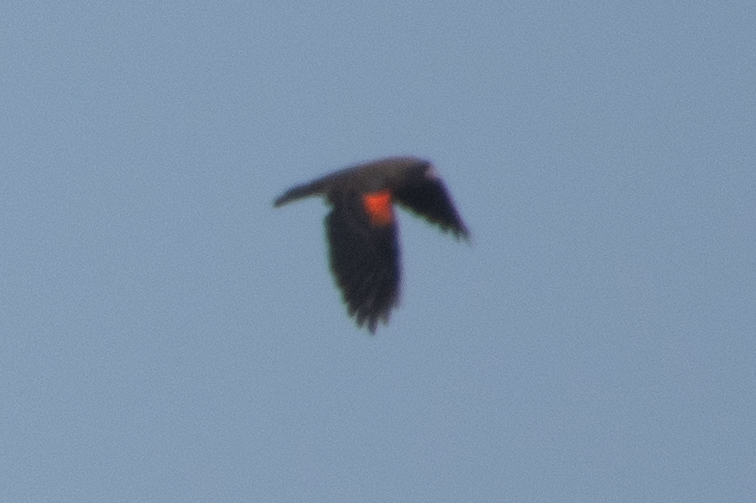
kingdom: Animalia
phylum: Chordata
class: Aves
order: Passeriformes
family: Icteridae
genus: Agelaius
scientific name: Agelaius phoeniceus
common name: Red-winged blackbird
